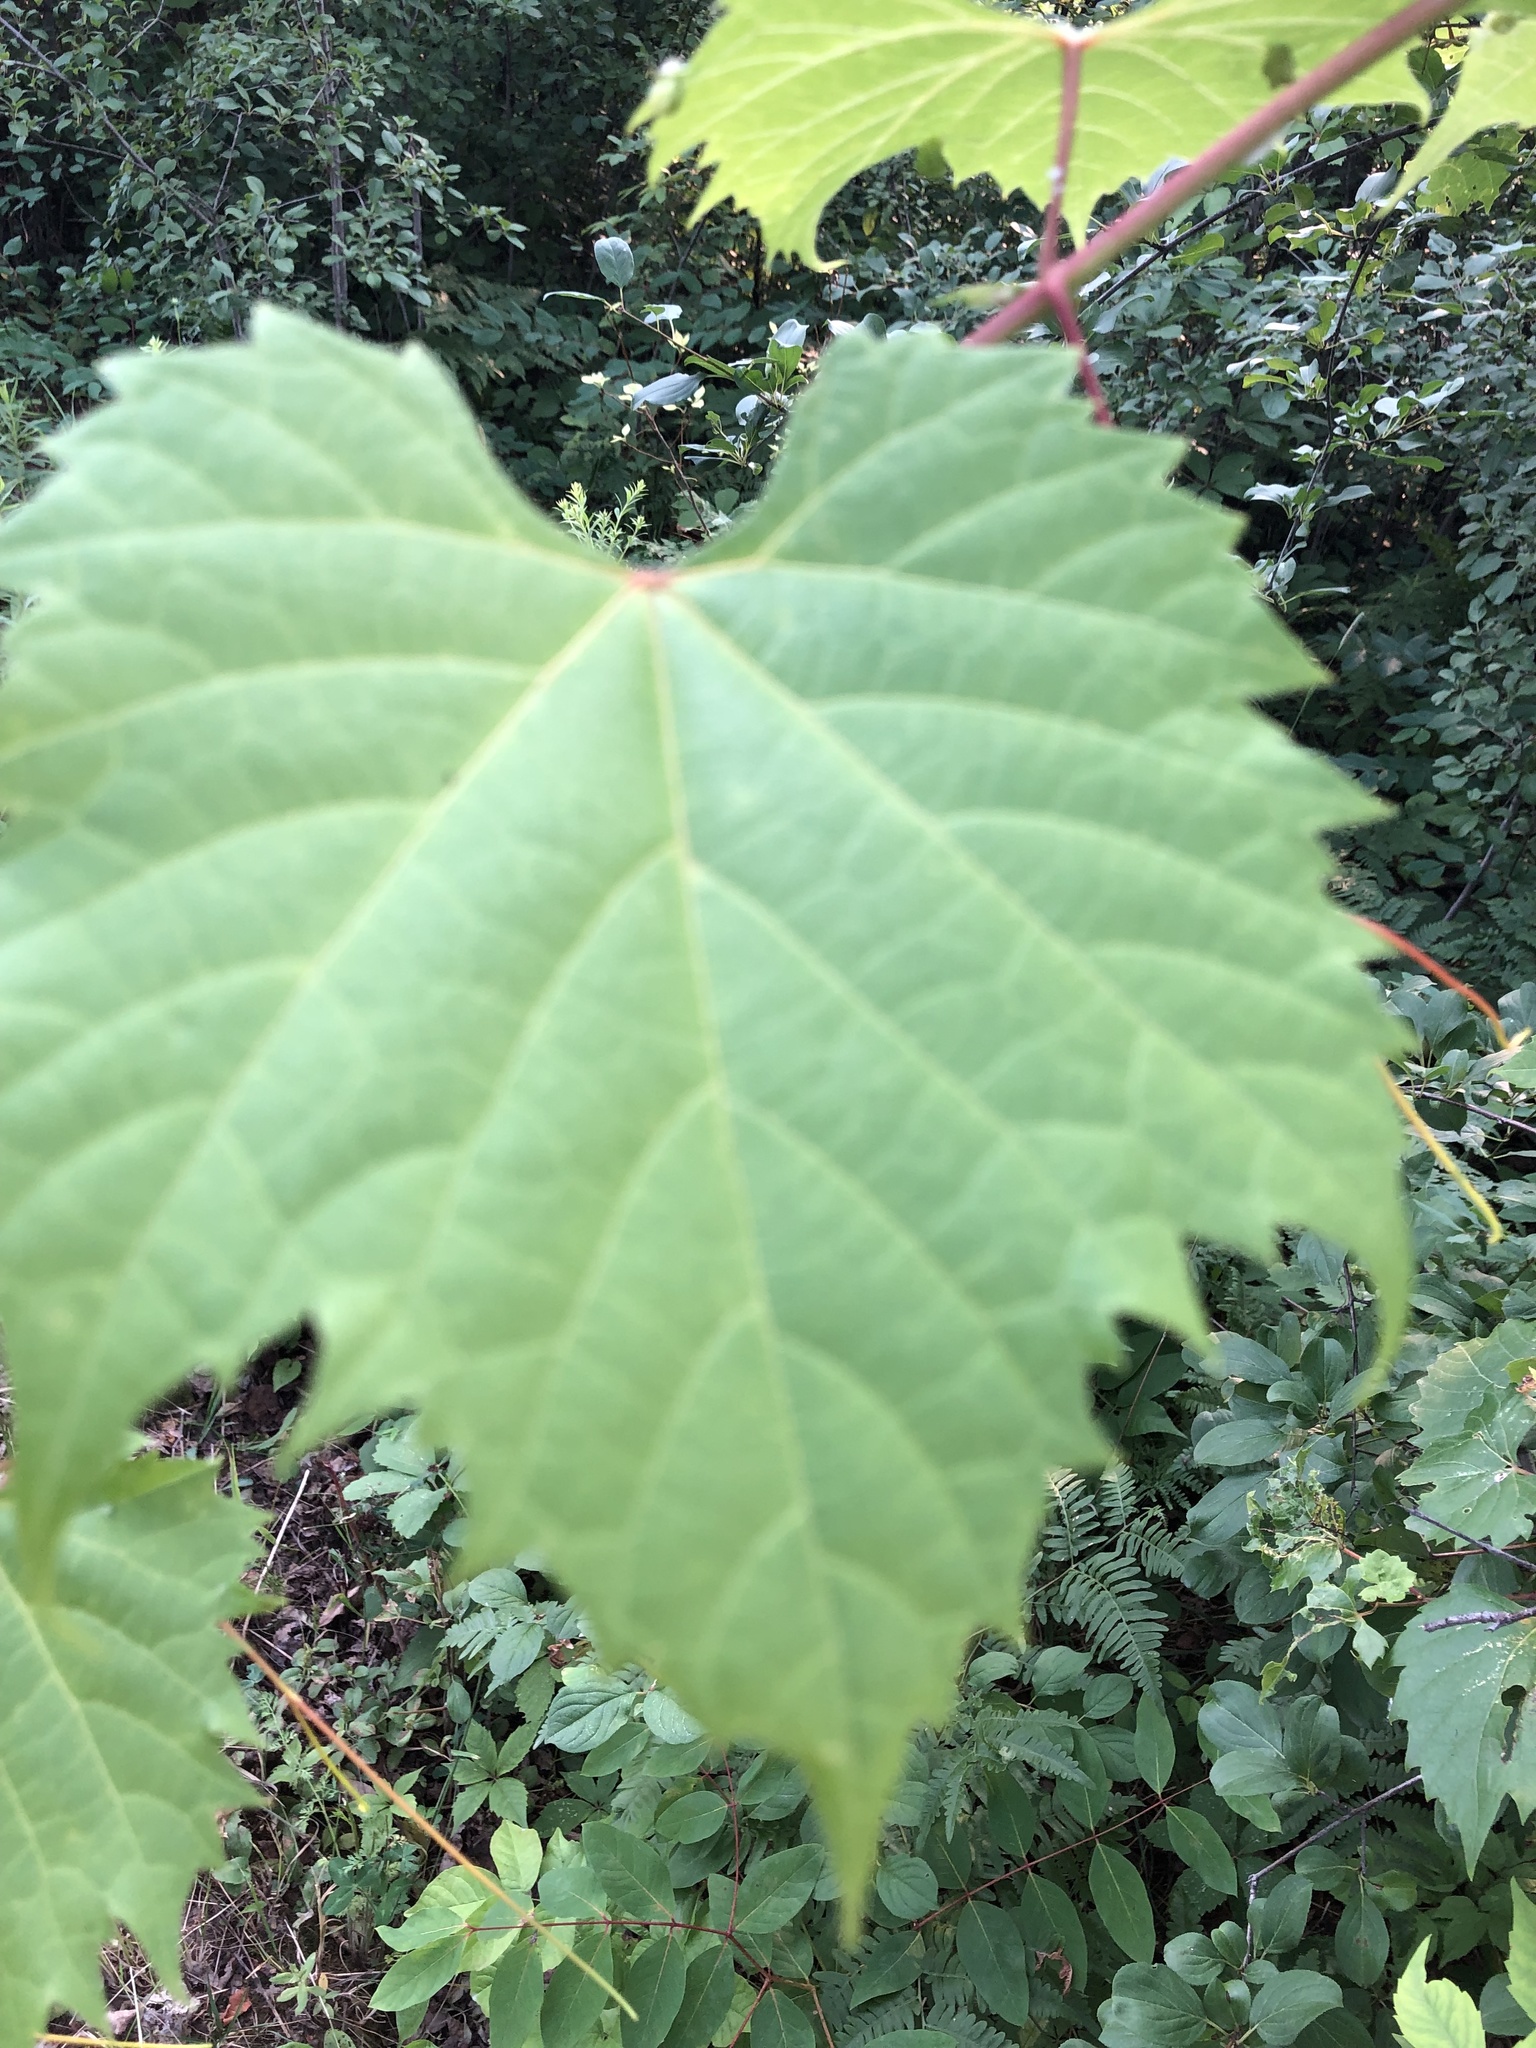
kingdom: Plantae
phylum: Tracheophyta
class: Magnoliopsida
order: Vitales
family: Vitaceae
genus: Vitis
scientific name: Vitis riparia
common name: Frost grape
